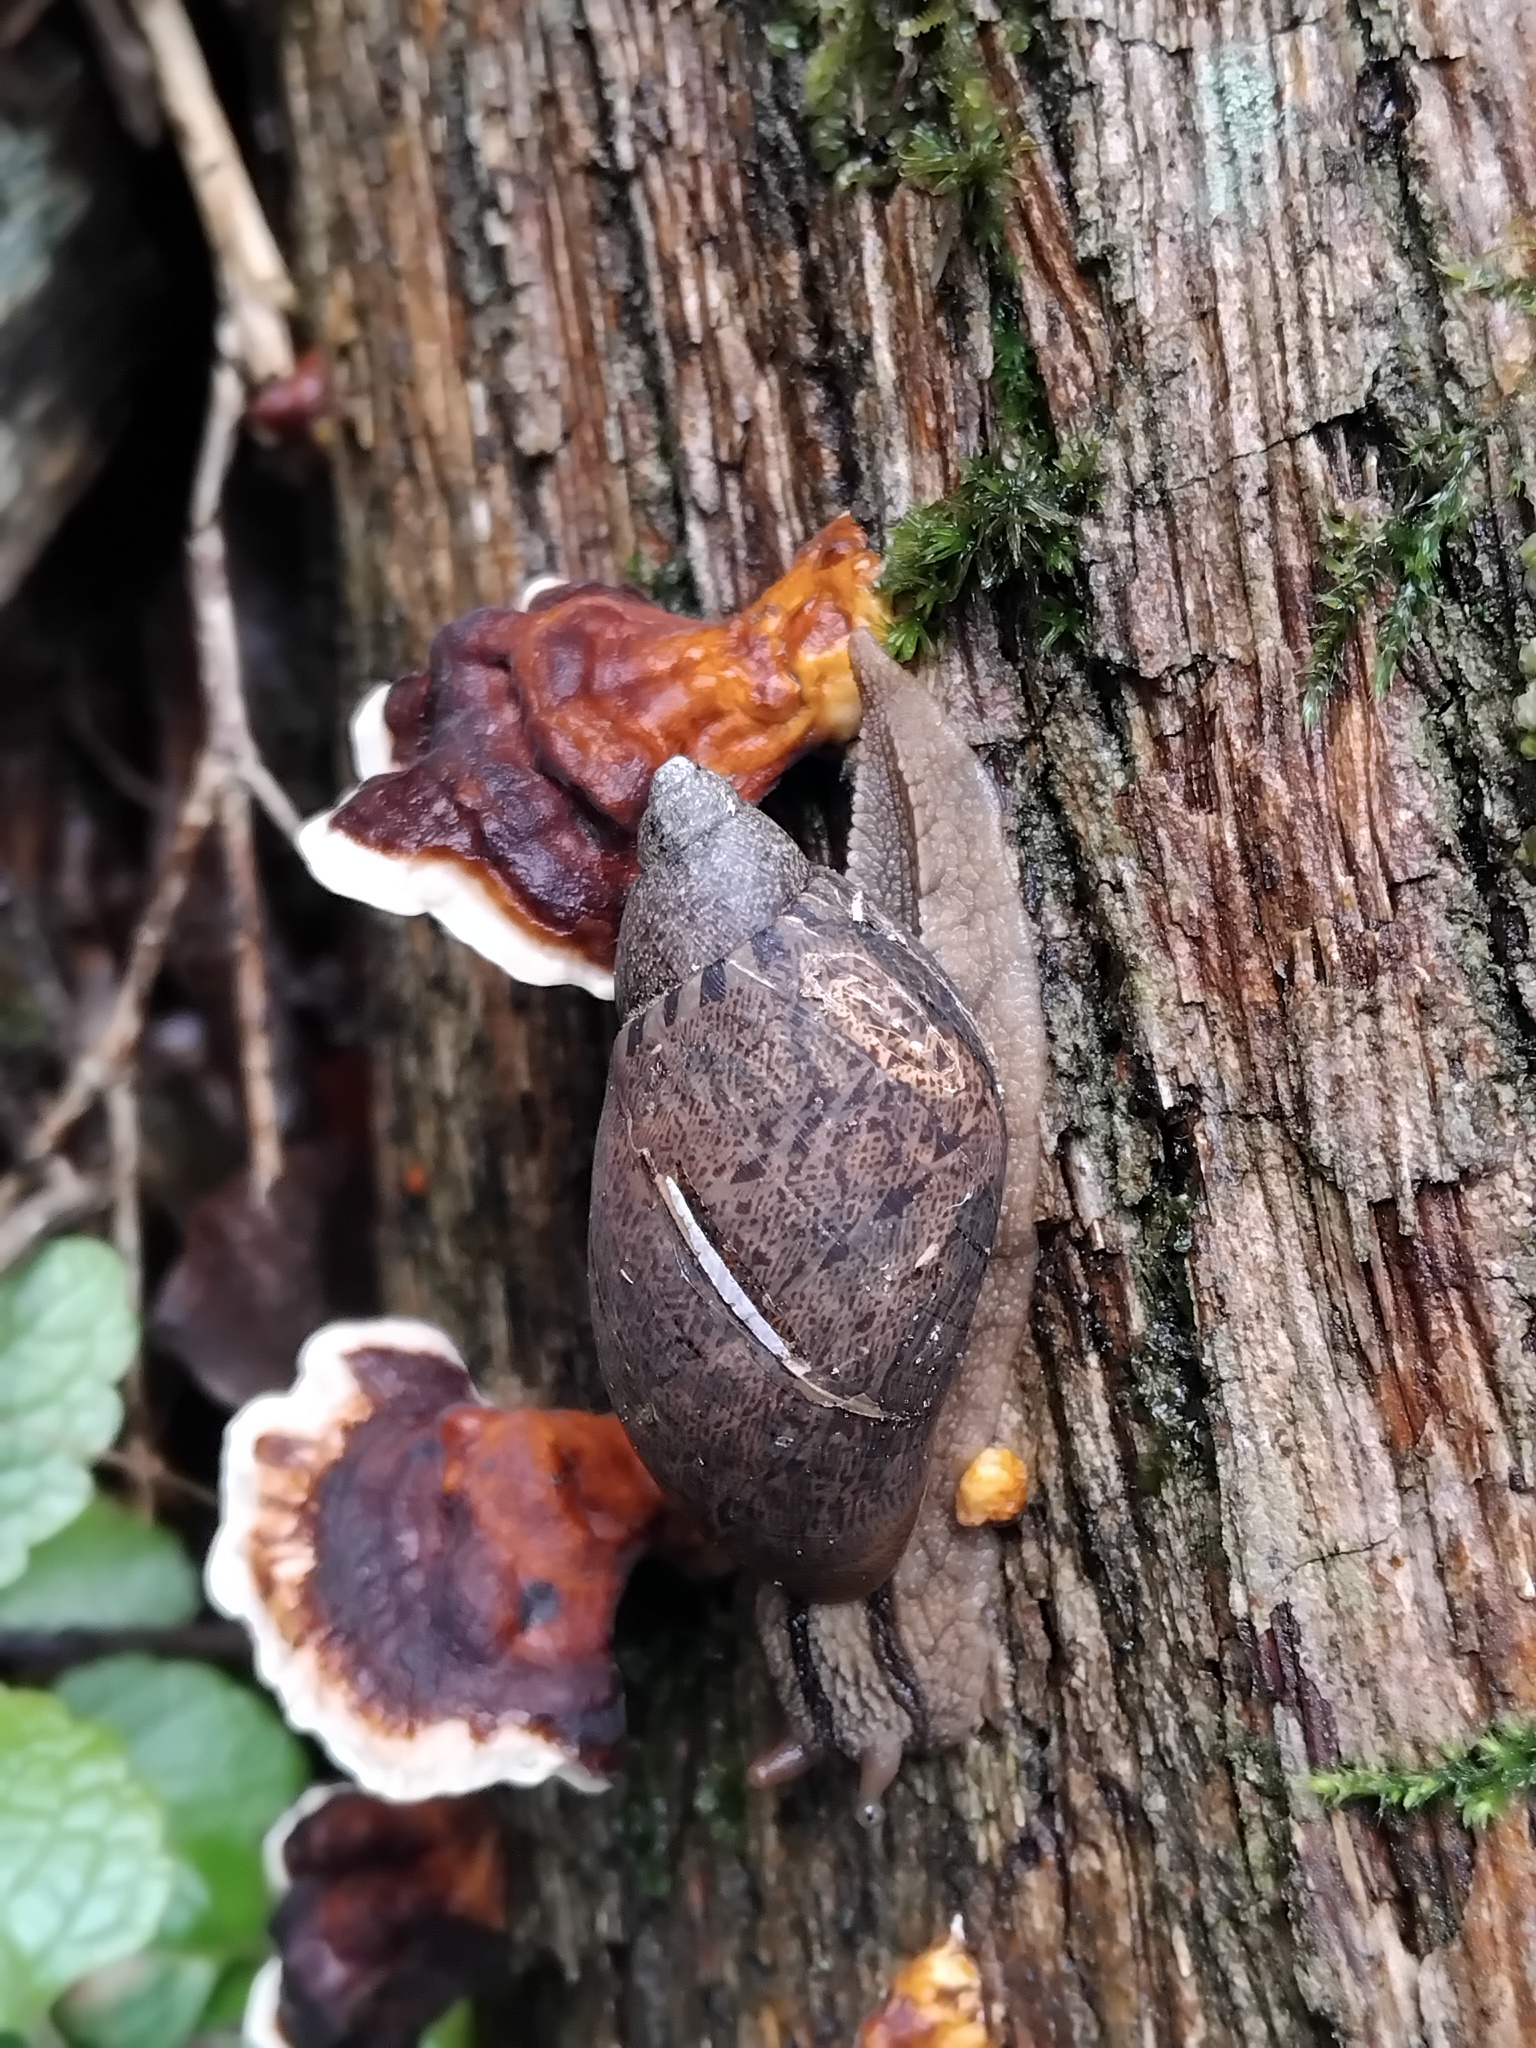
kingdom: Animalia
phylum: Mollusca
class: Gastropoda
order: Stylommatophora
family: Caryodidae
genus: Brazieresta
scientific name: Brazieresta larreyi
